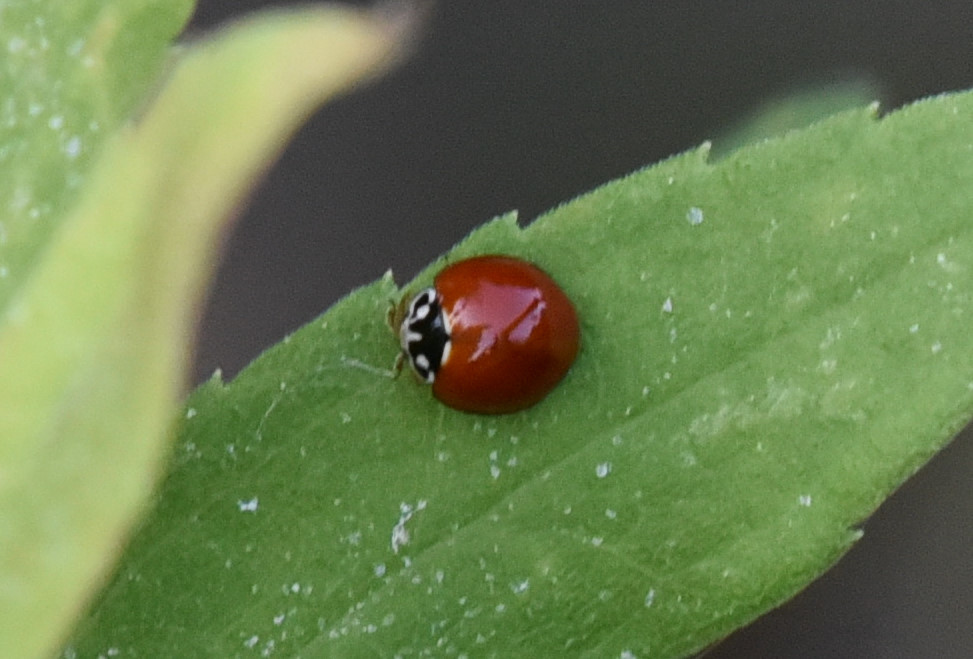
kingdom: Animalia
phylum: Arthropoda
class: Insecta
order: Coleoptera
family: Coccinellidae
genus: Cycloneda
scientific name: Cycloneda sanguinea
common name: Ladybird beetle
